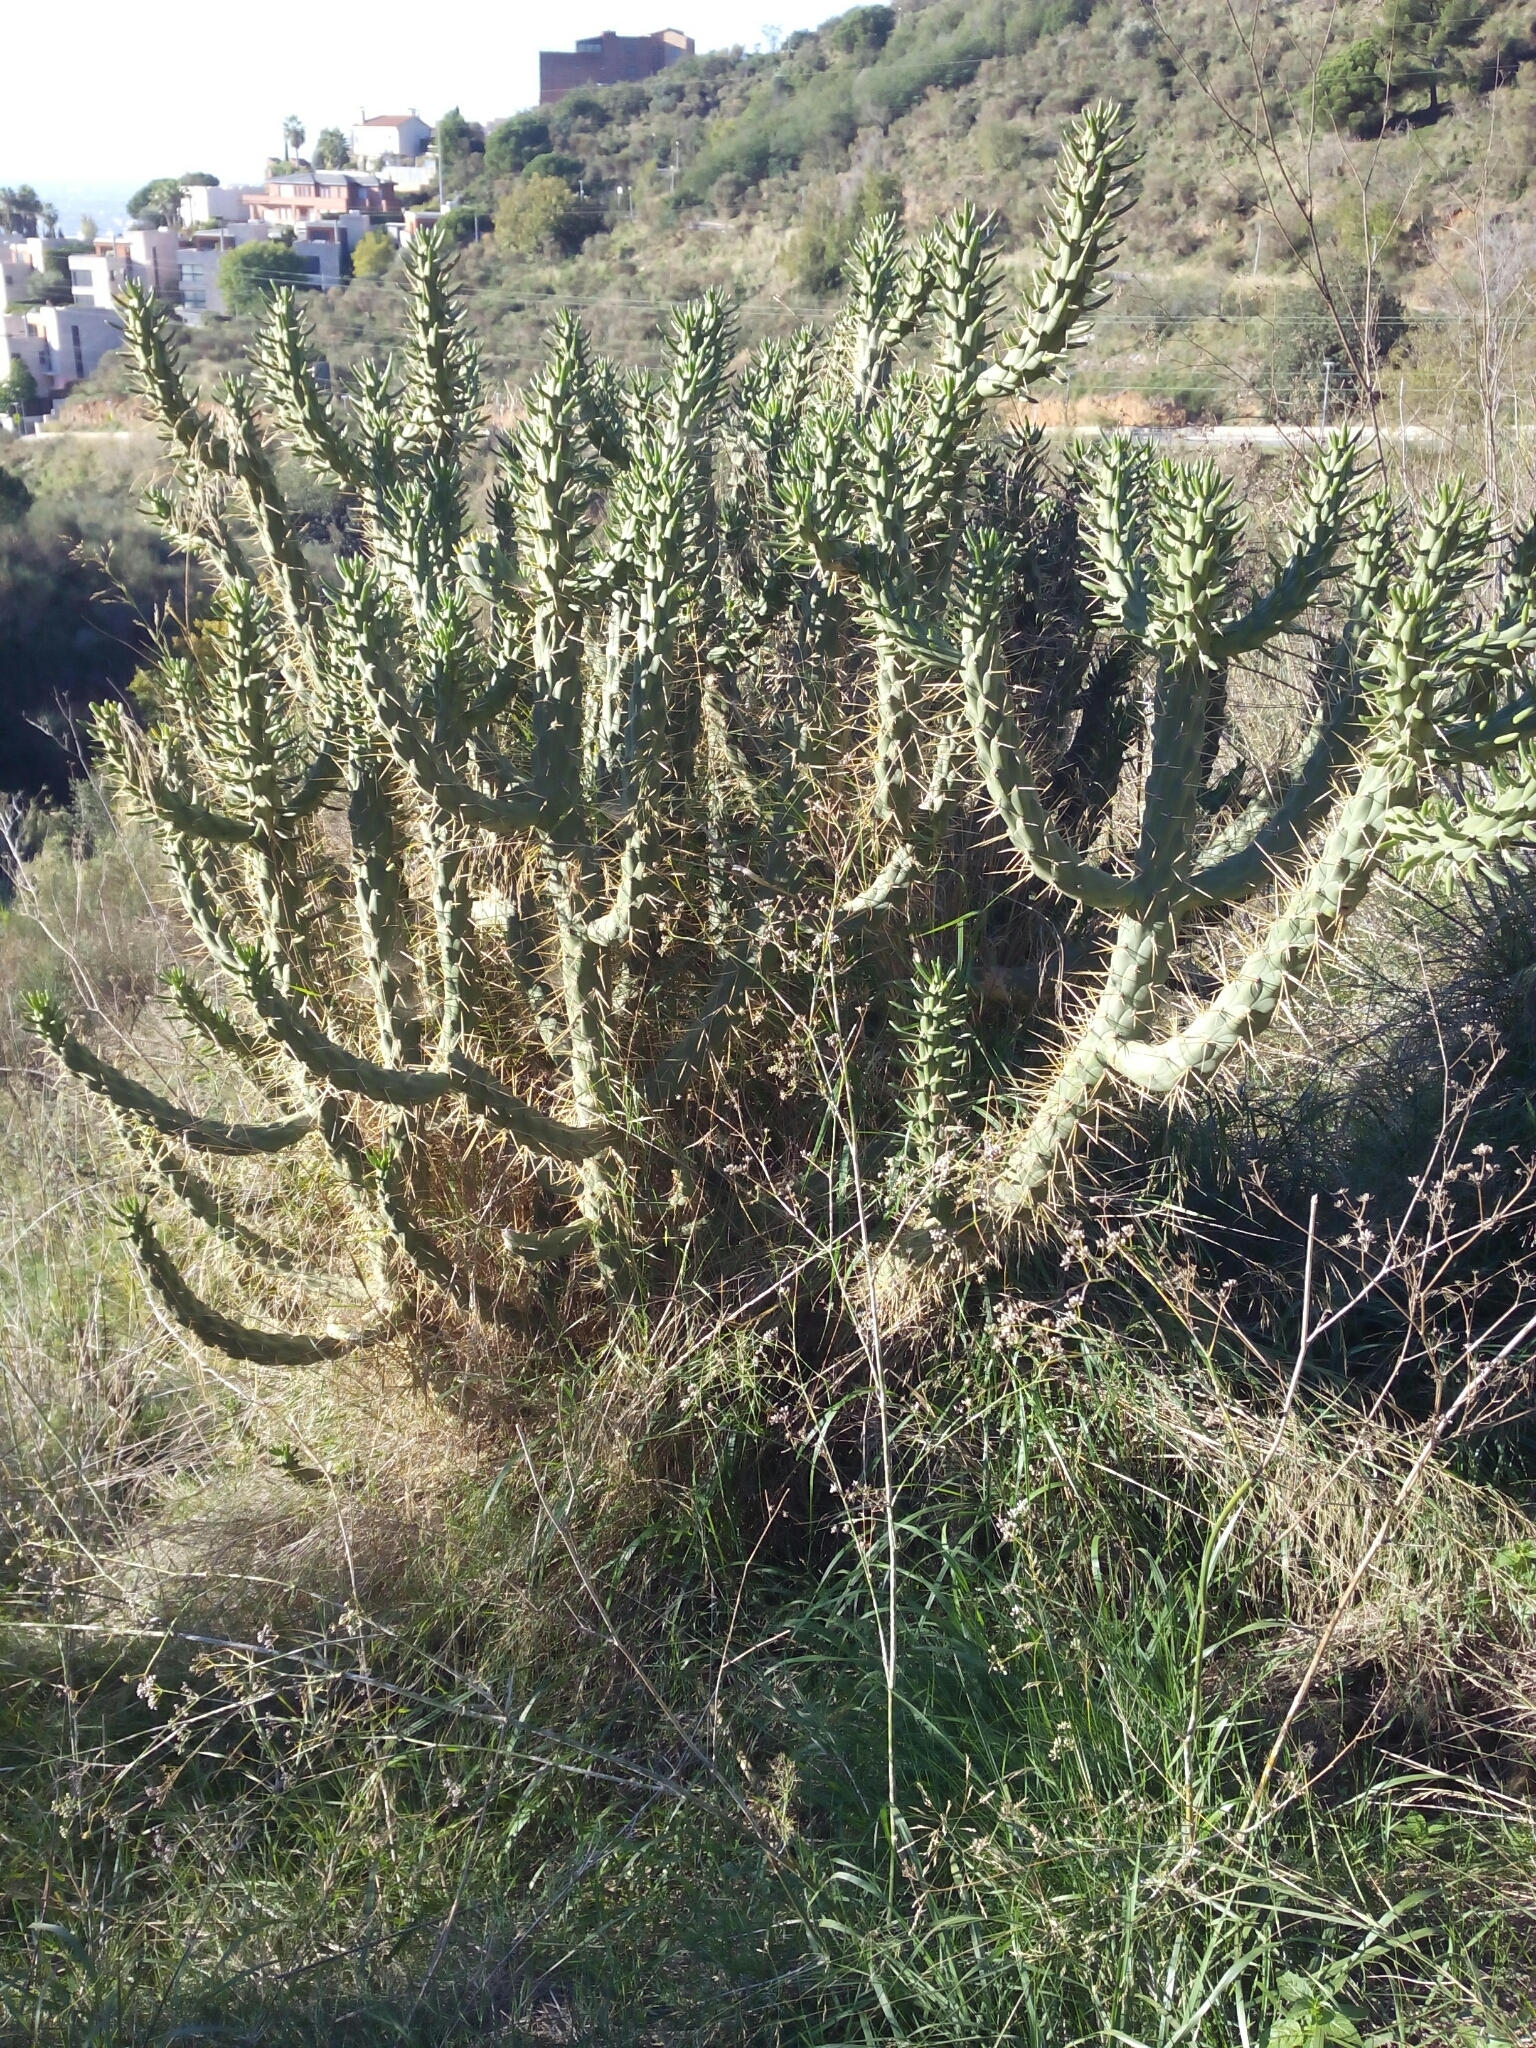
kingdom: Plantae
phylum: Tracheophyta
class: Magnoliopsida
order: Caryophyllales
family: Cactaceae
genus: Austrocylindropuntia
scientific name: Austrocylindropuntia subulata
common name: Eve's needle cactus
